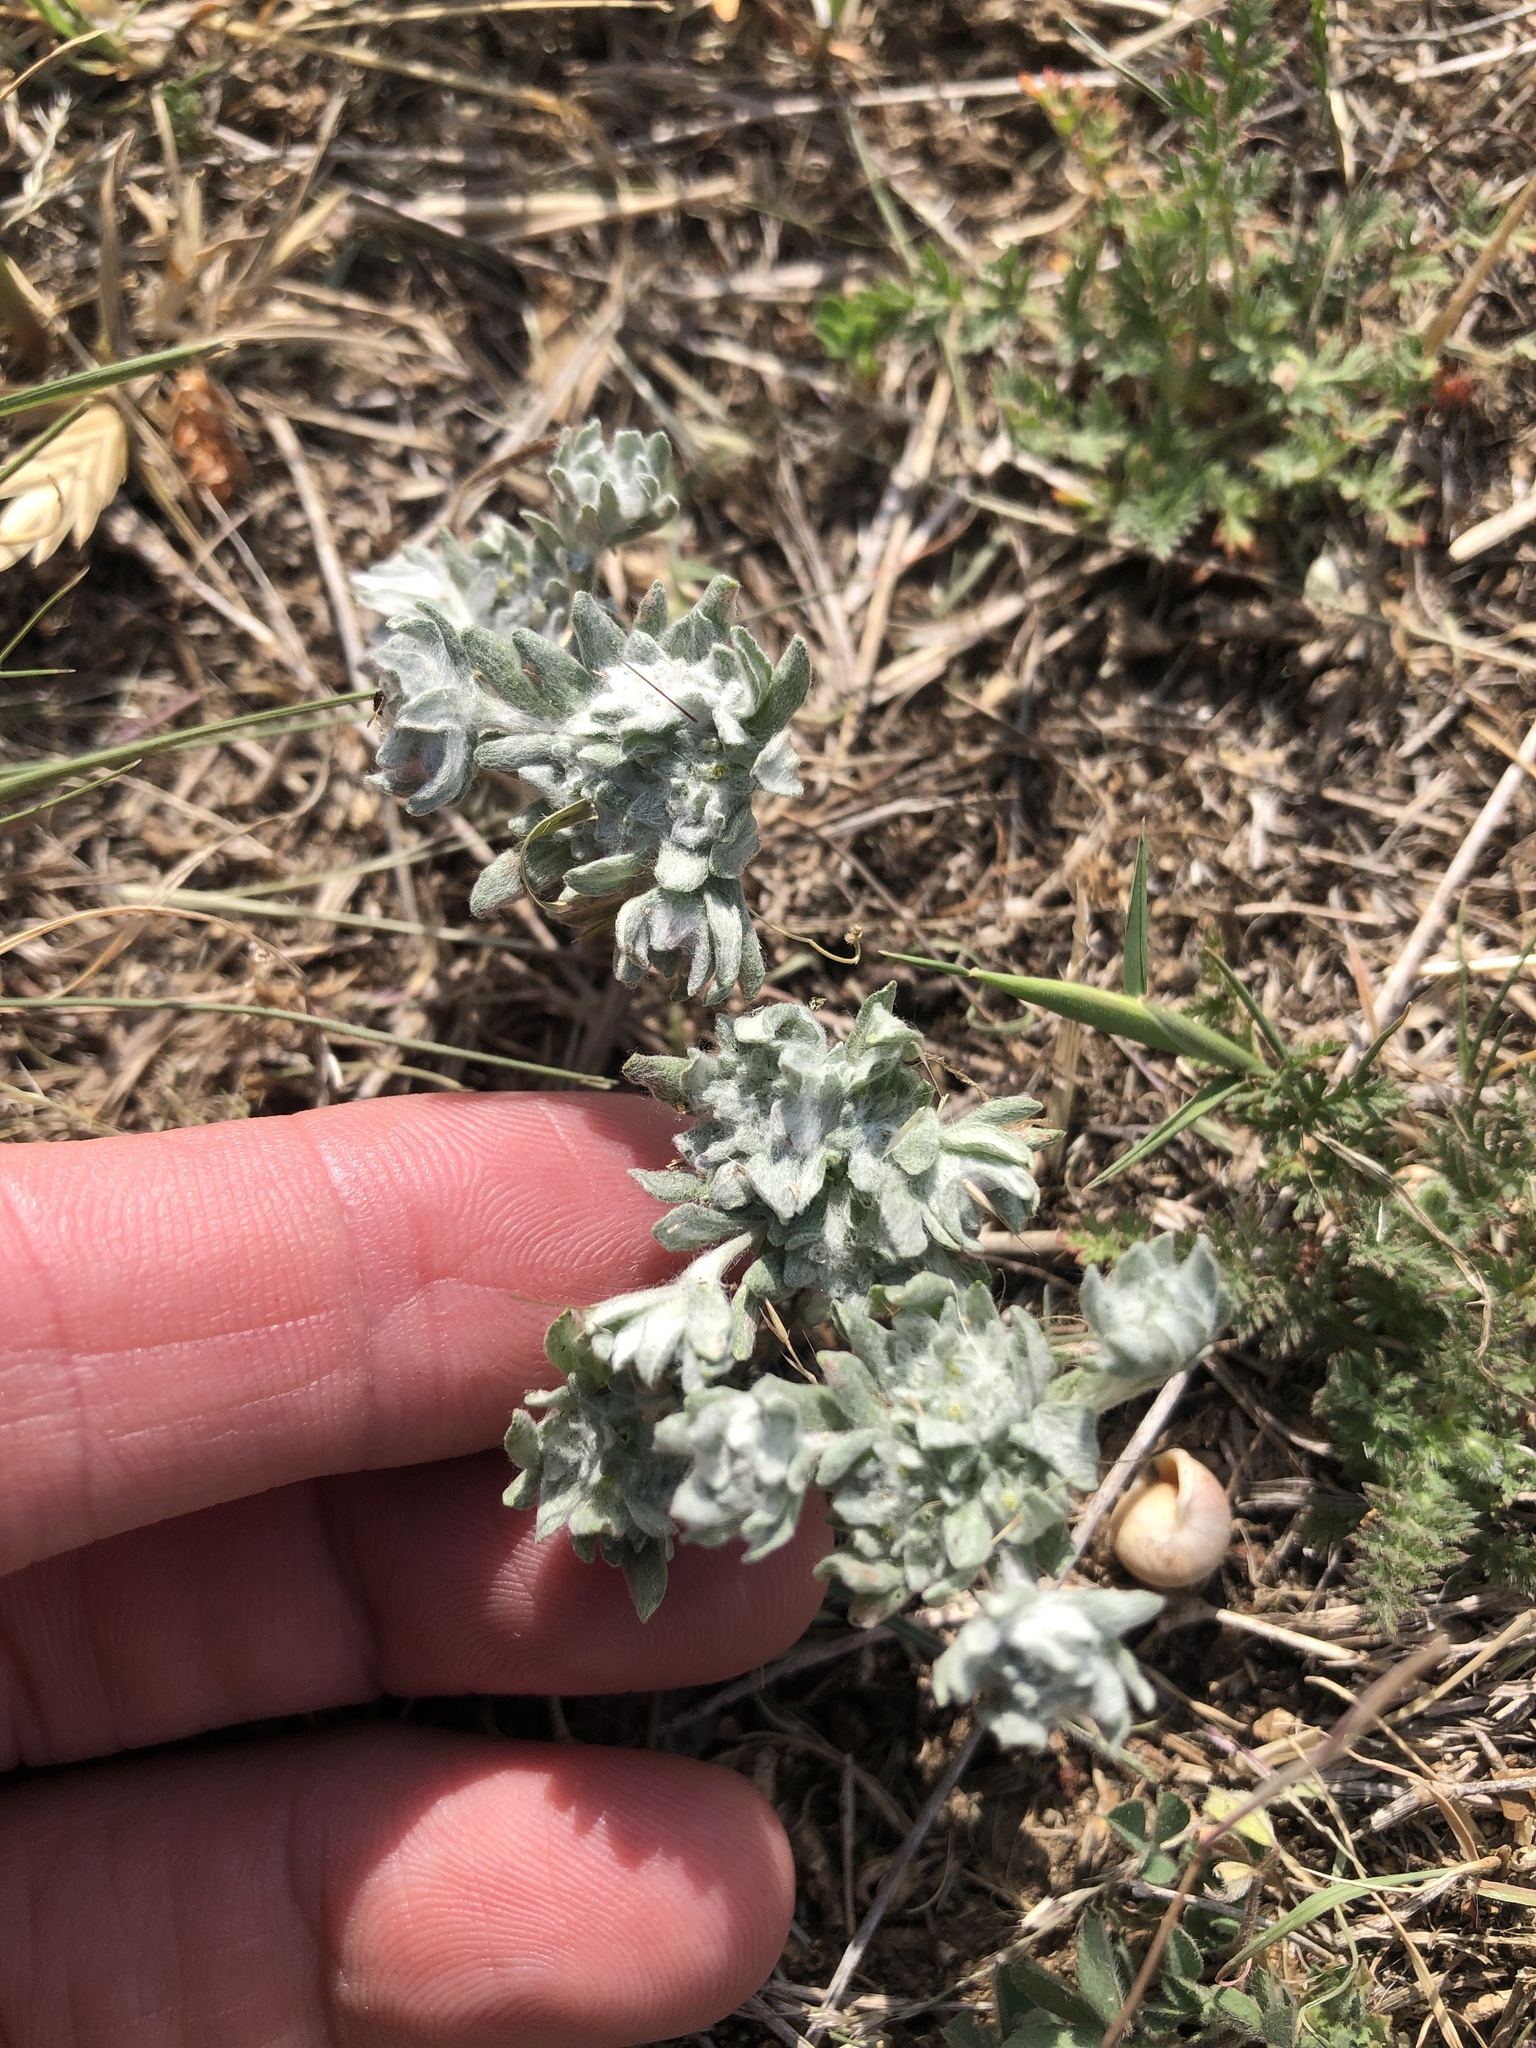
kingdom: Plantae
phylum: Tracheophyta
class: Magnoliopsida
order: Asterales
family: Asteraceae
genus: Diaperia
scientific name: Diaperia prolifera
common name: Big-head rabbit-tobacco
